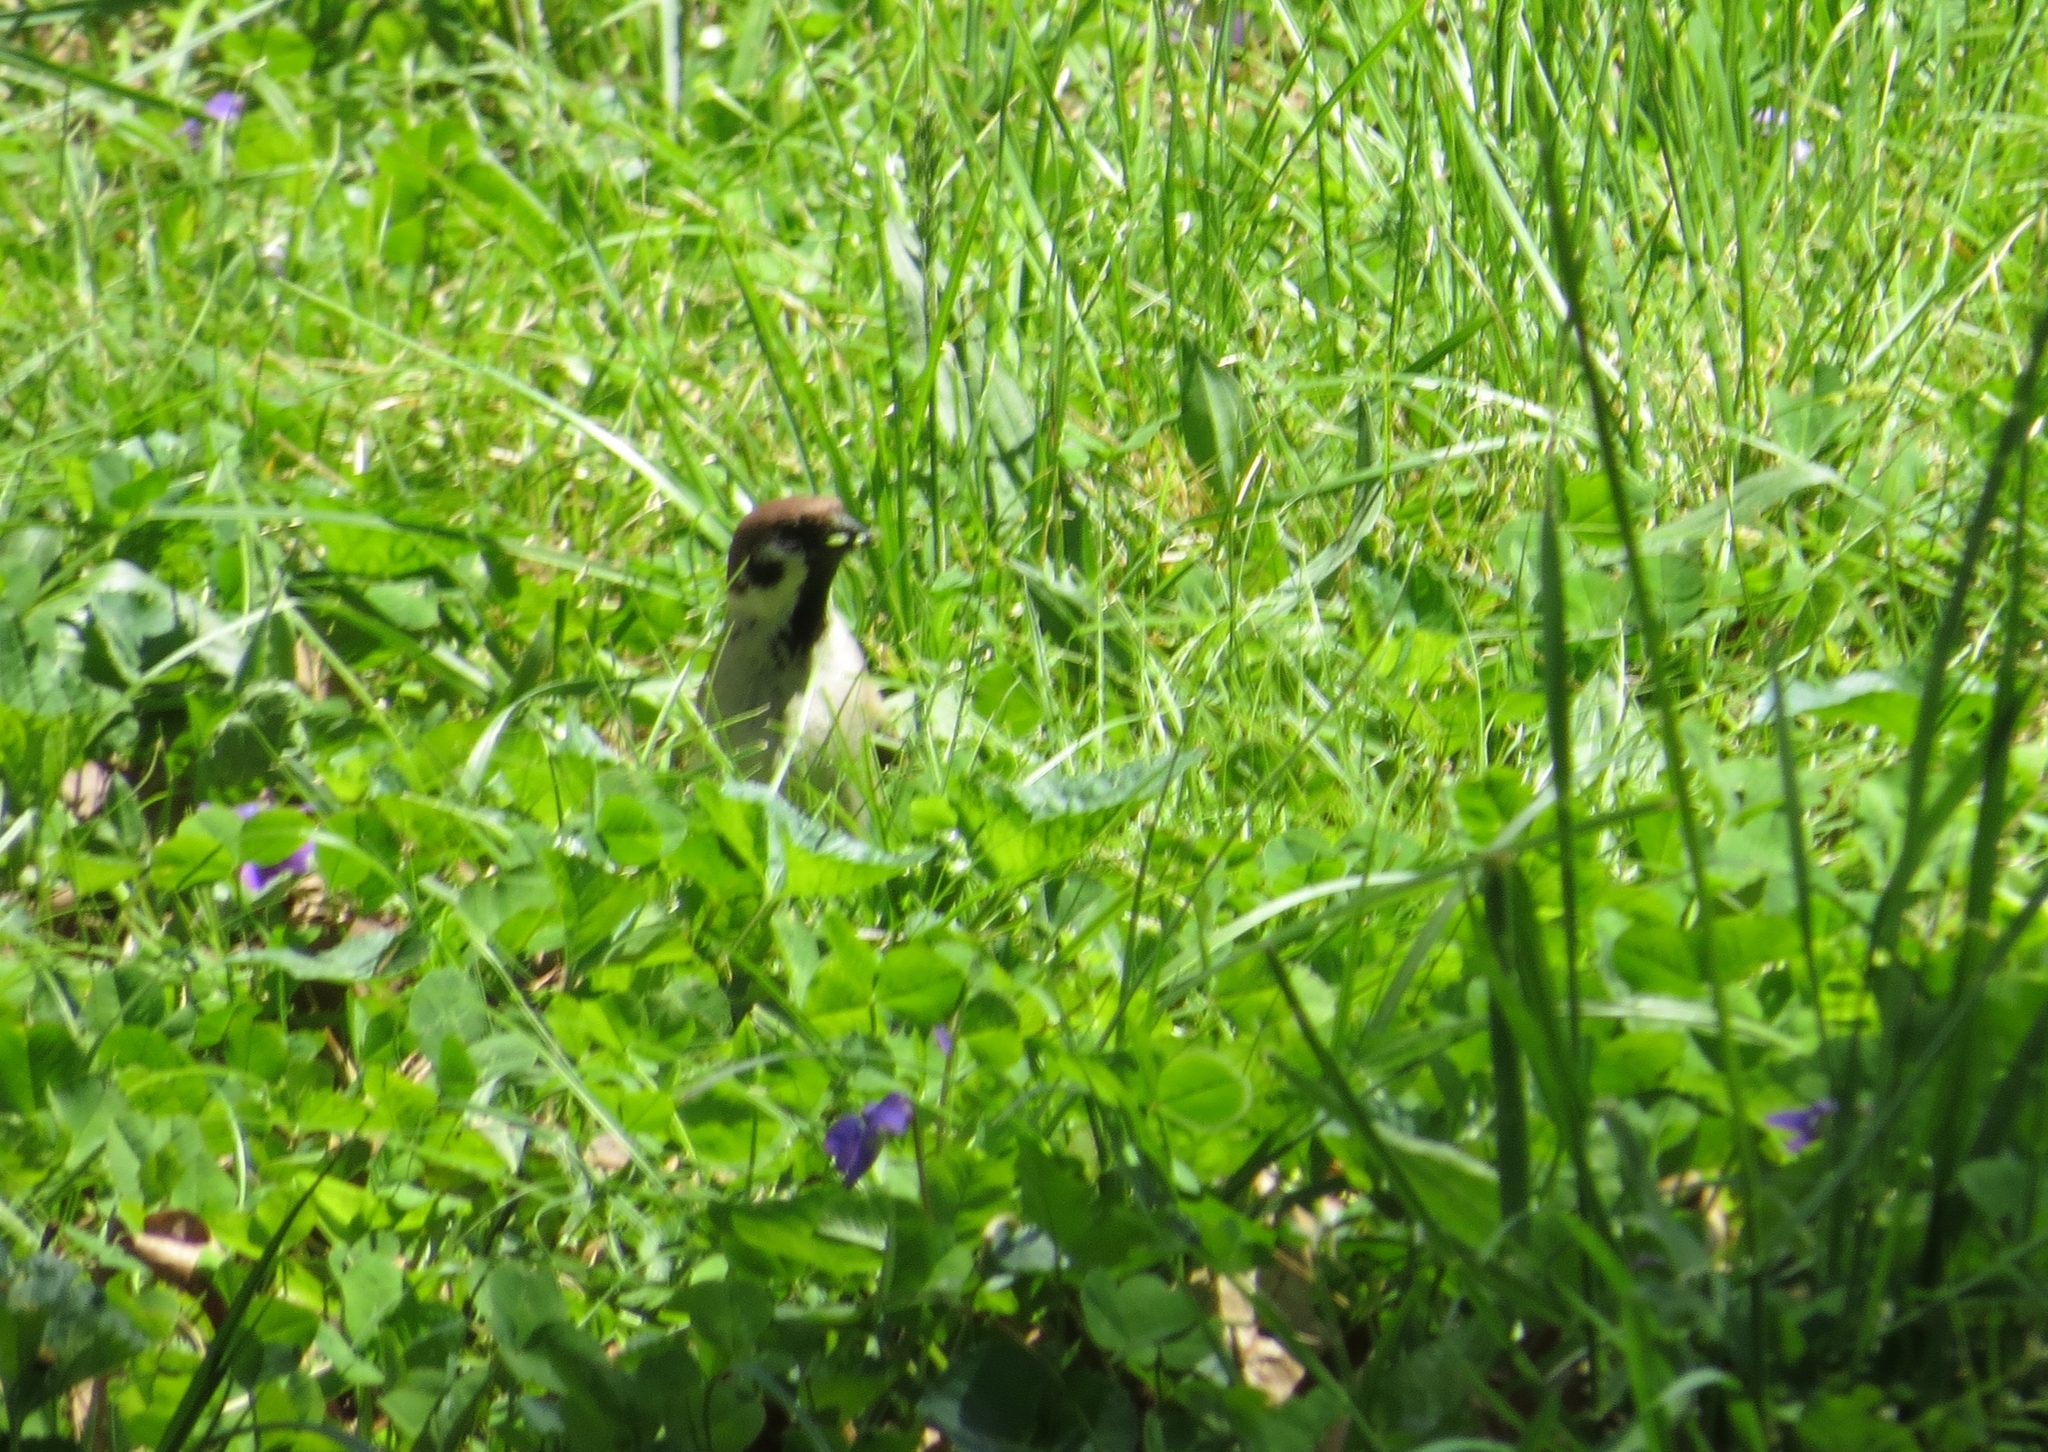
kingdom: Animalia
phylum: Chordata
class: Aves
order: Passeriformes
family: Passeridae
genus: Passer
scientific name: Passer montanus
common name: Eurasian tree sparrow
